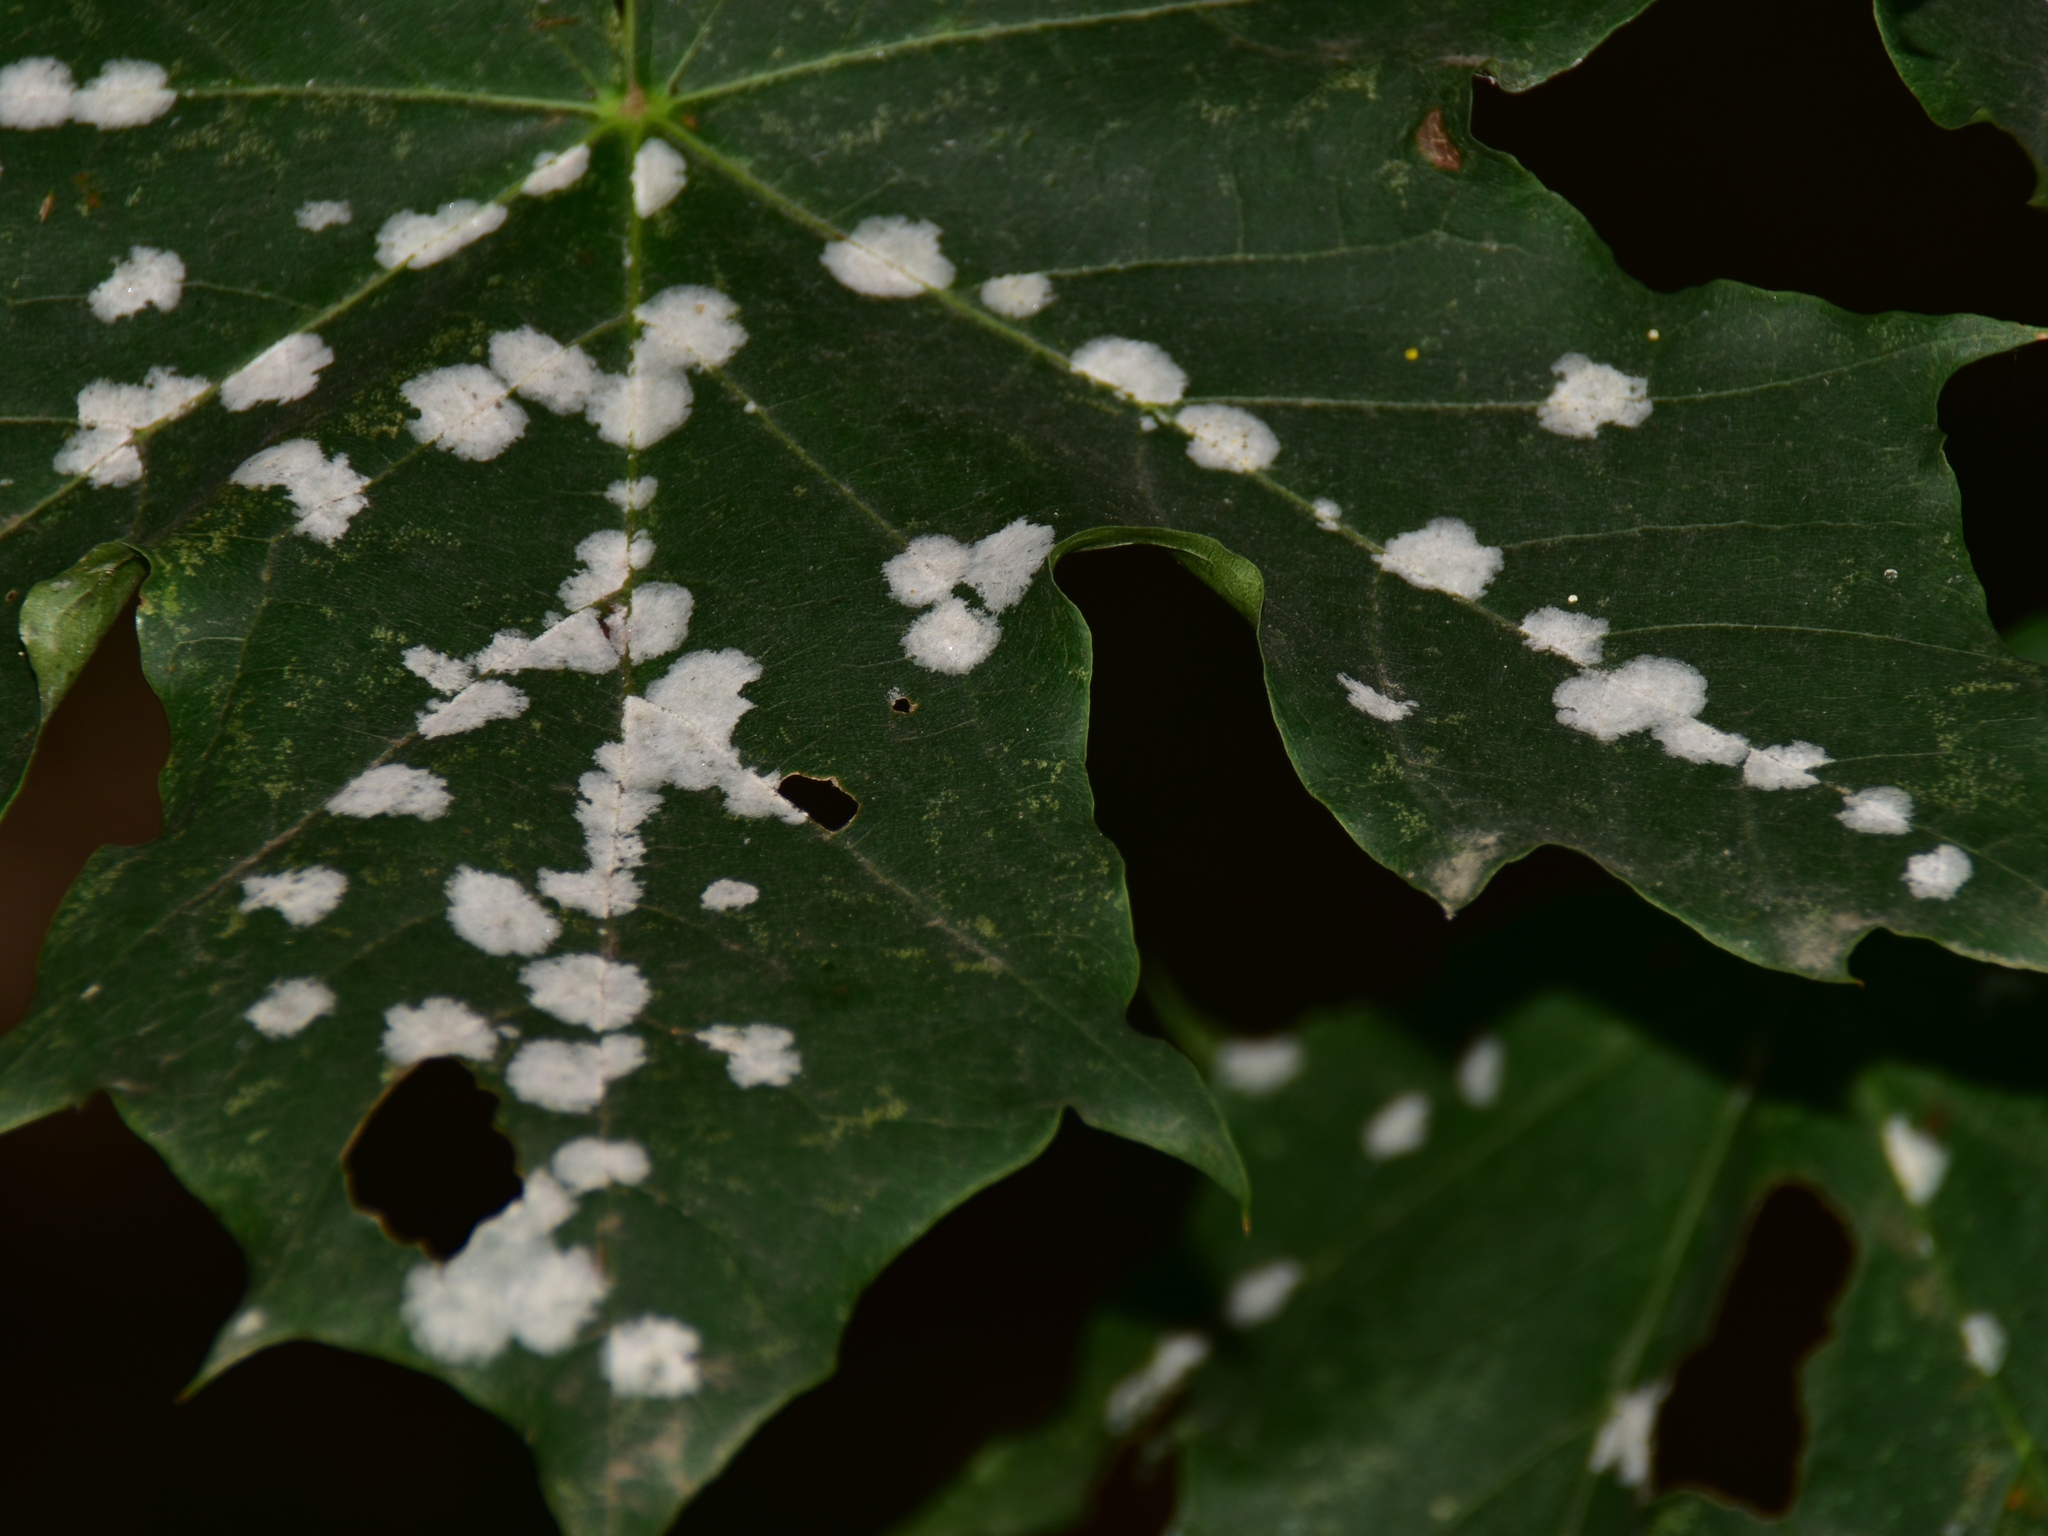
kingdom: Fungi
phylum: Ascomycota
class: Leotiomycetes
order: Helotiales
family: Erysiphaceae
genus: Sawadaea
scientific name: Sawadaea tulasnei
